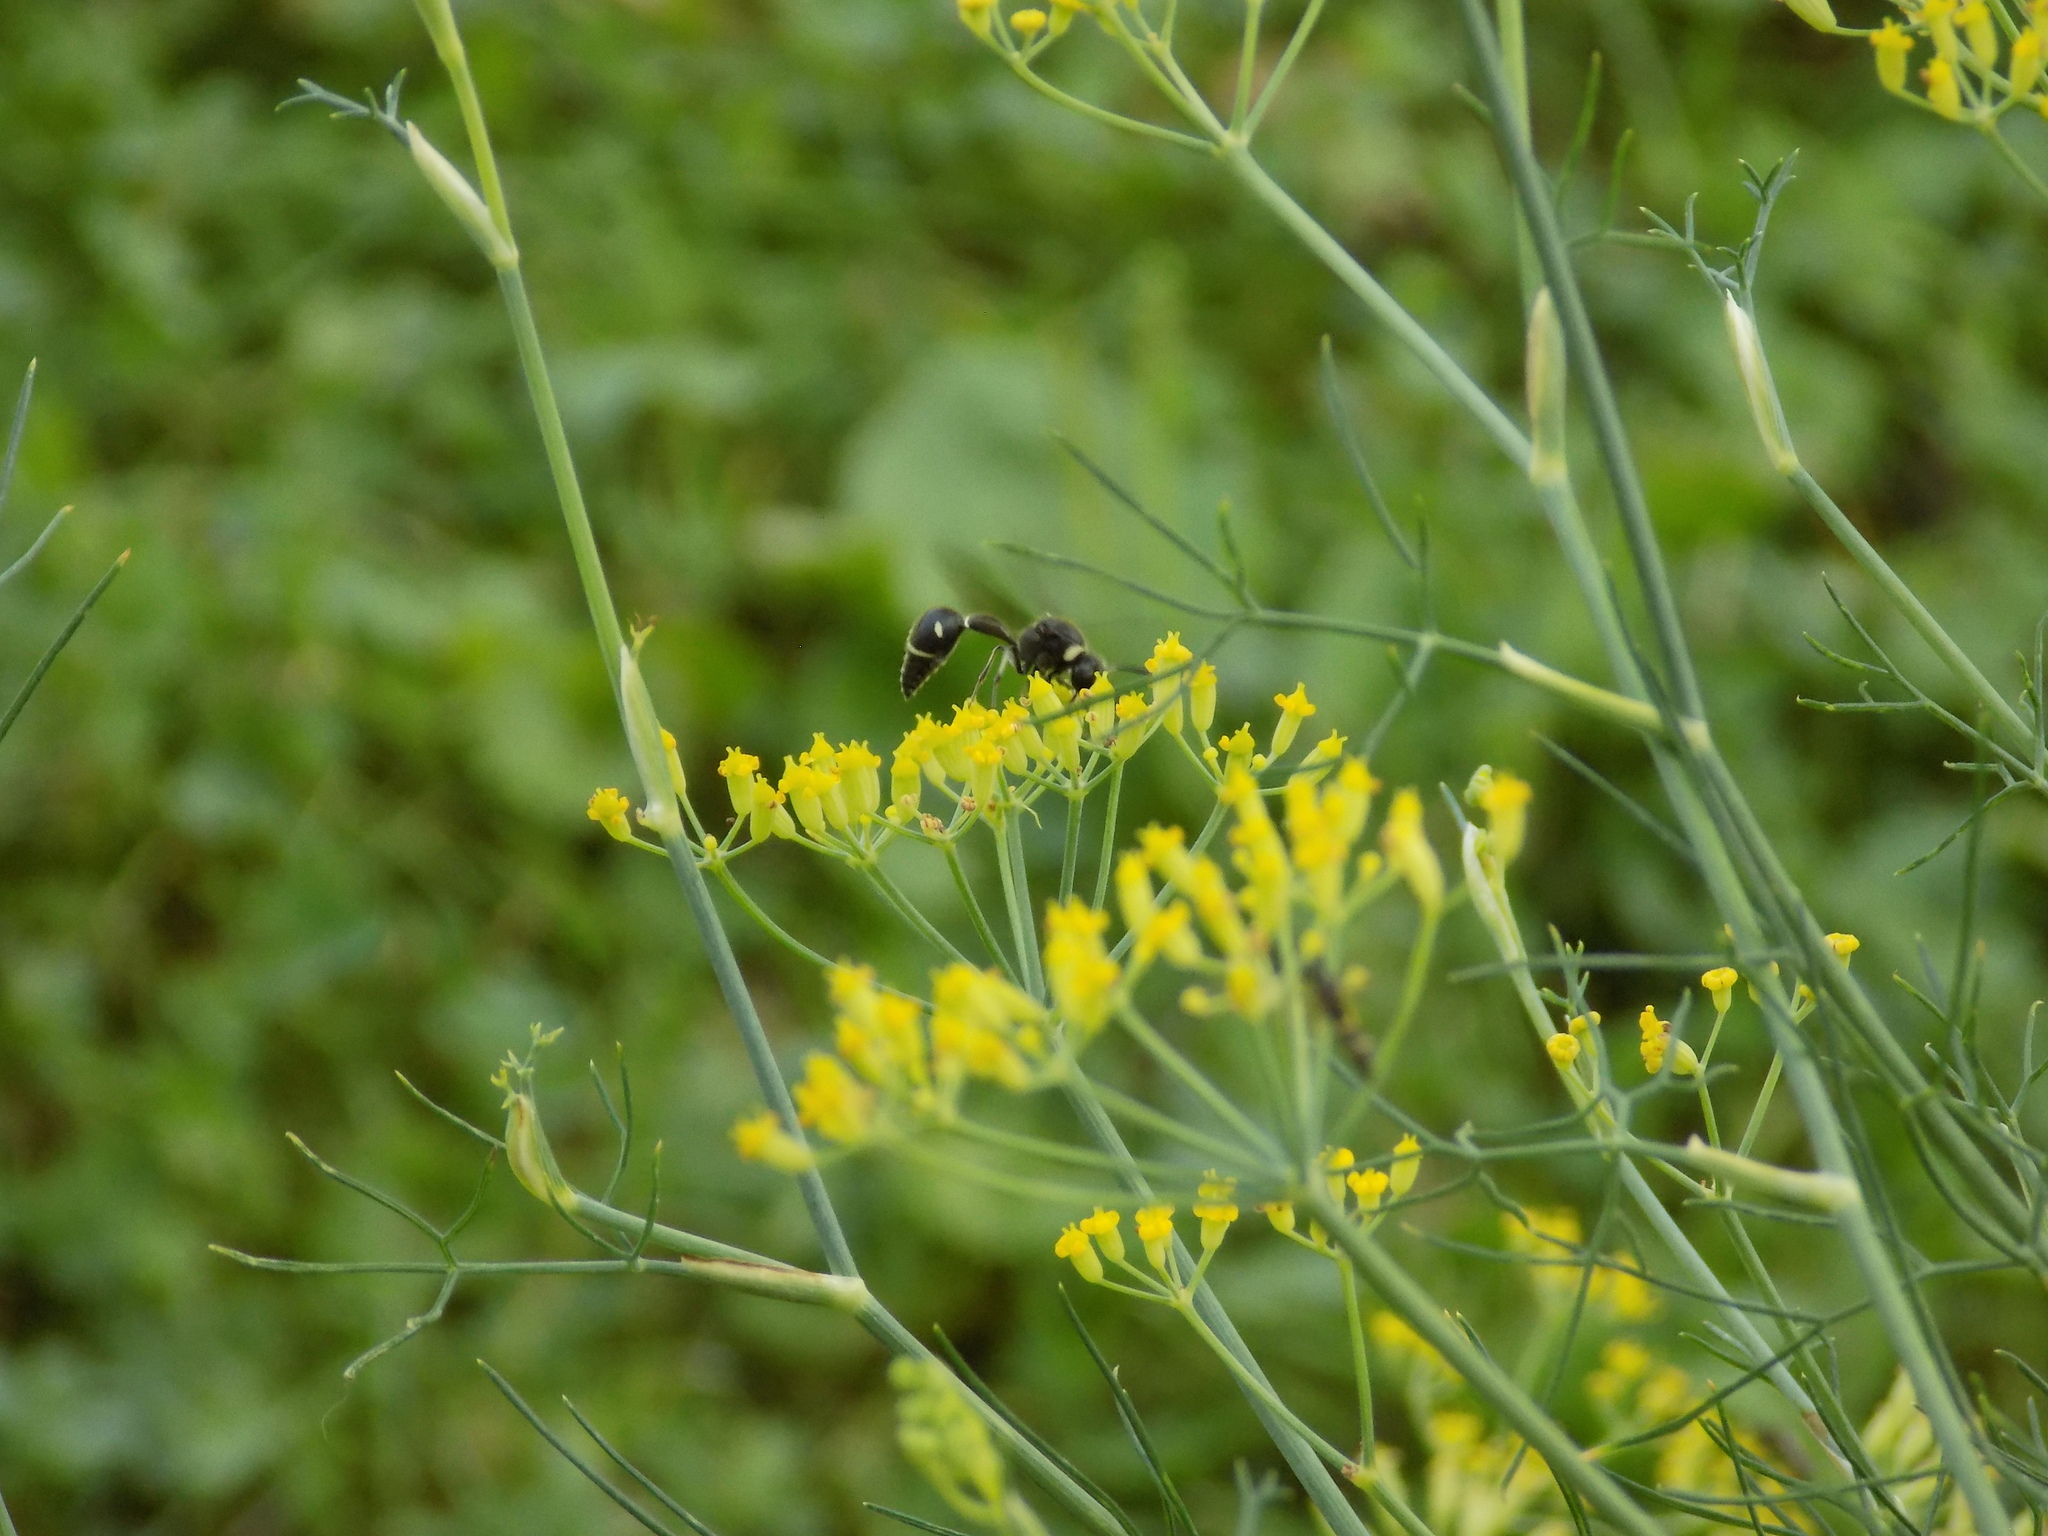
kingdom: Animalia
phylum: Arthropoda
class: Insecta
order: Hymenoptera
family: Vespidae
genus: Eumenes
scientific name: Eumenes fraternus
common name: Fraternal potter wasp
